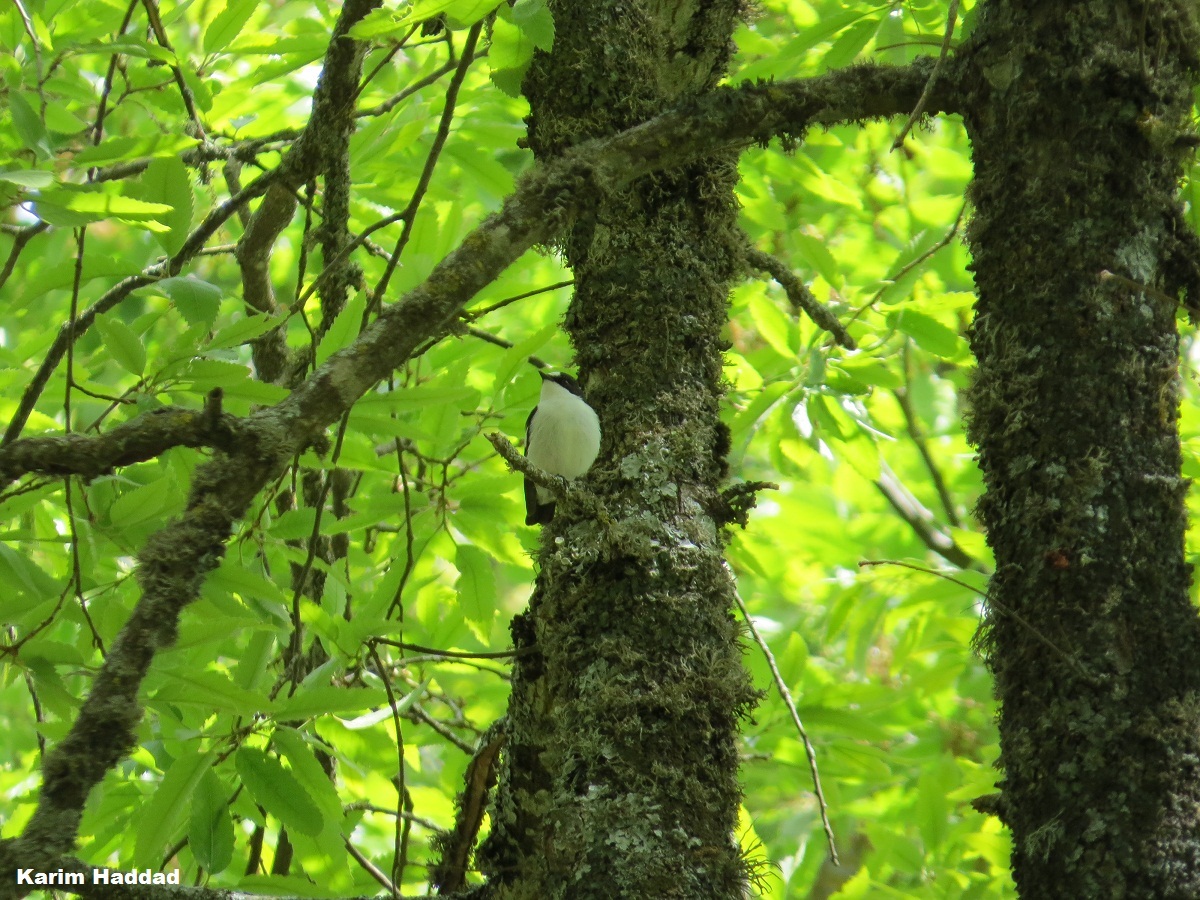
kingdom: Animalia
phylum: Chordata
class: Aves
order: Passeriformes
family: Muscicapidae
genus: Ficedula
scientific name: Ficedula speculigera
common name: Atlas pied flycatcher
